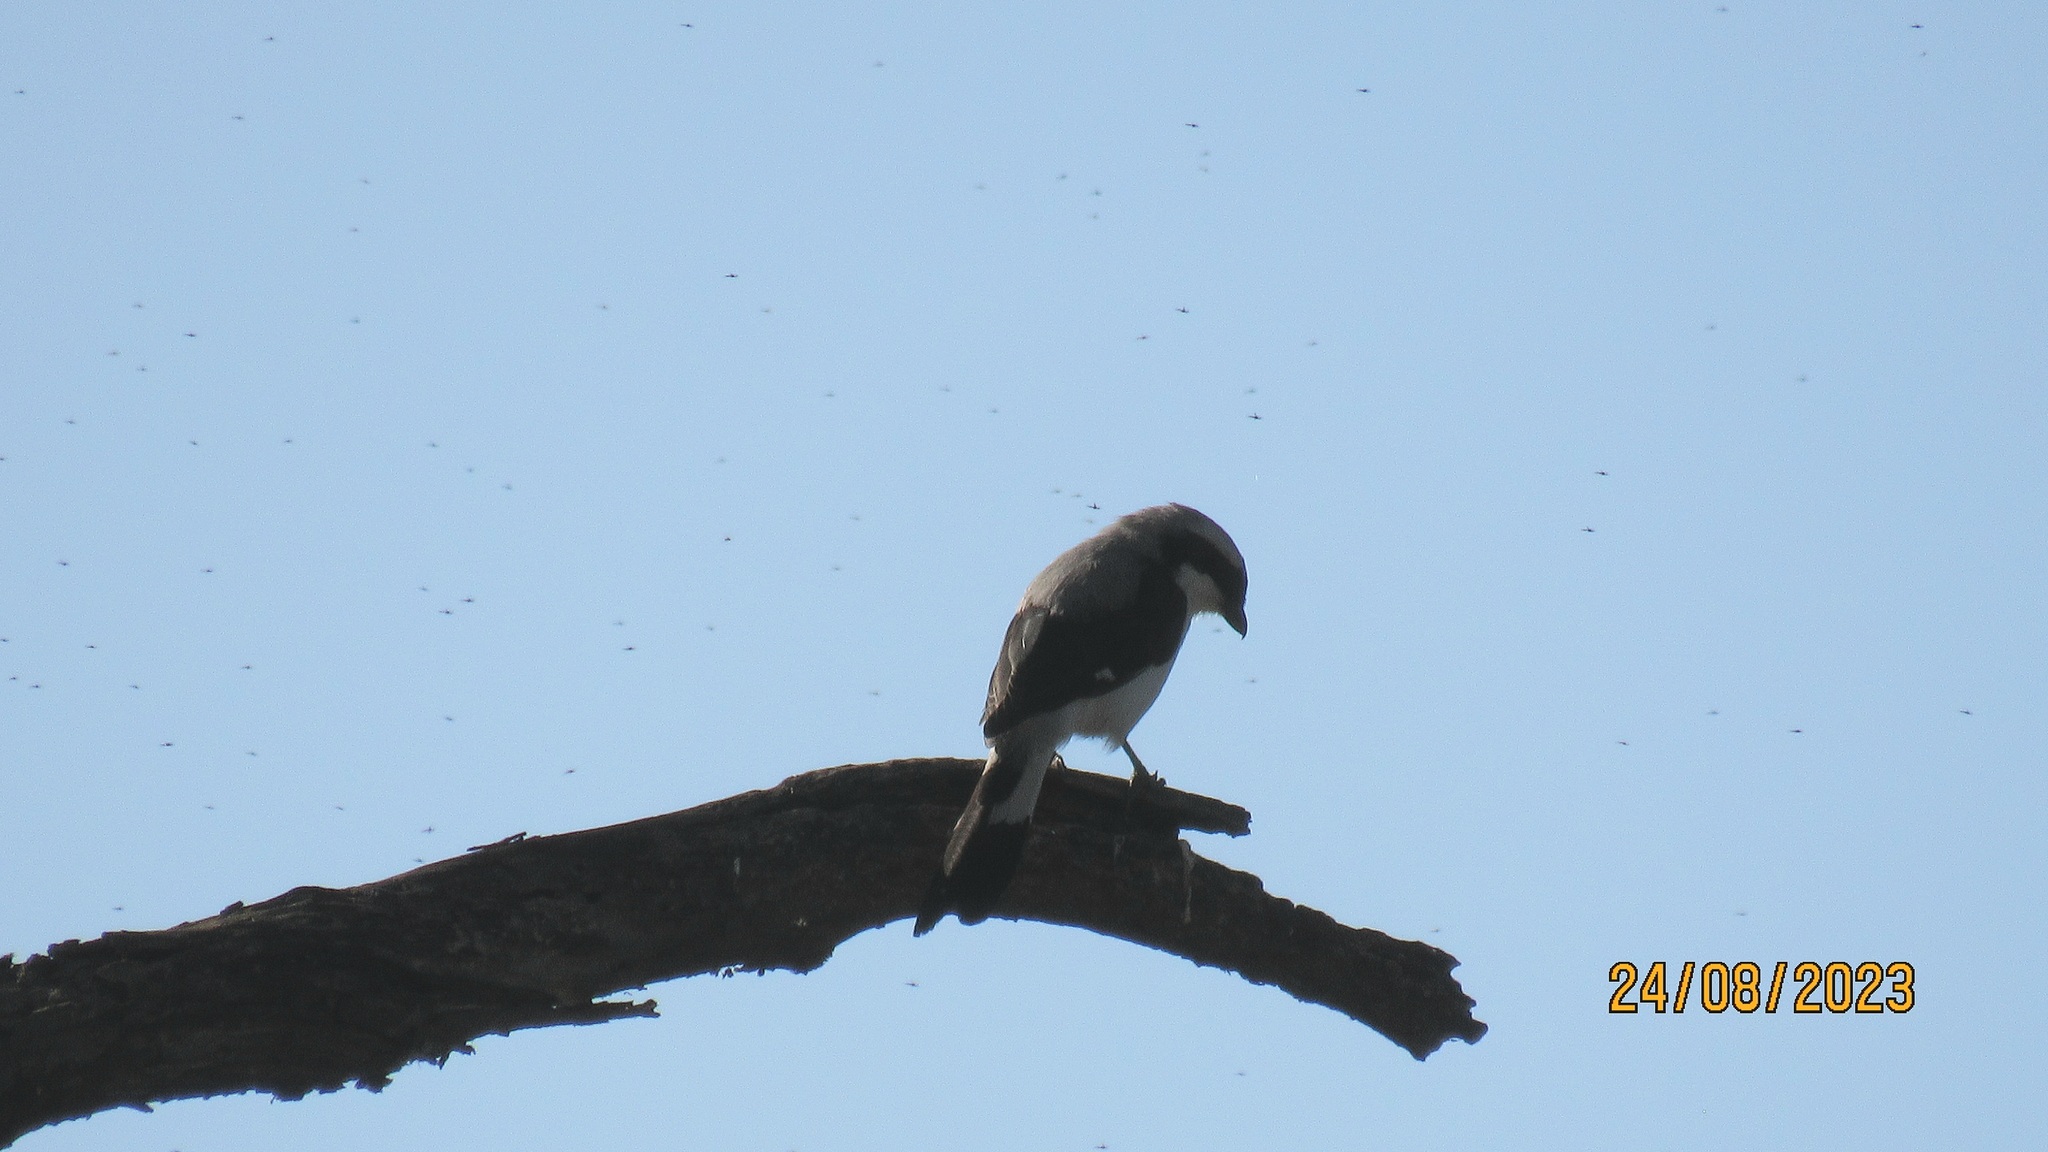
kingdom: Animalia
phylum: Chordata
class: Aves
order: Passeriformes
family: Laniidae
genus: Lanius
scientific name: Lanius excubitoroides
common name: Grey-backed fiscal
